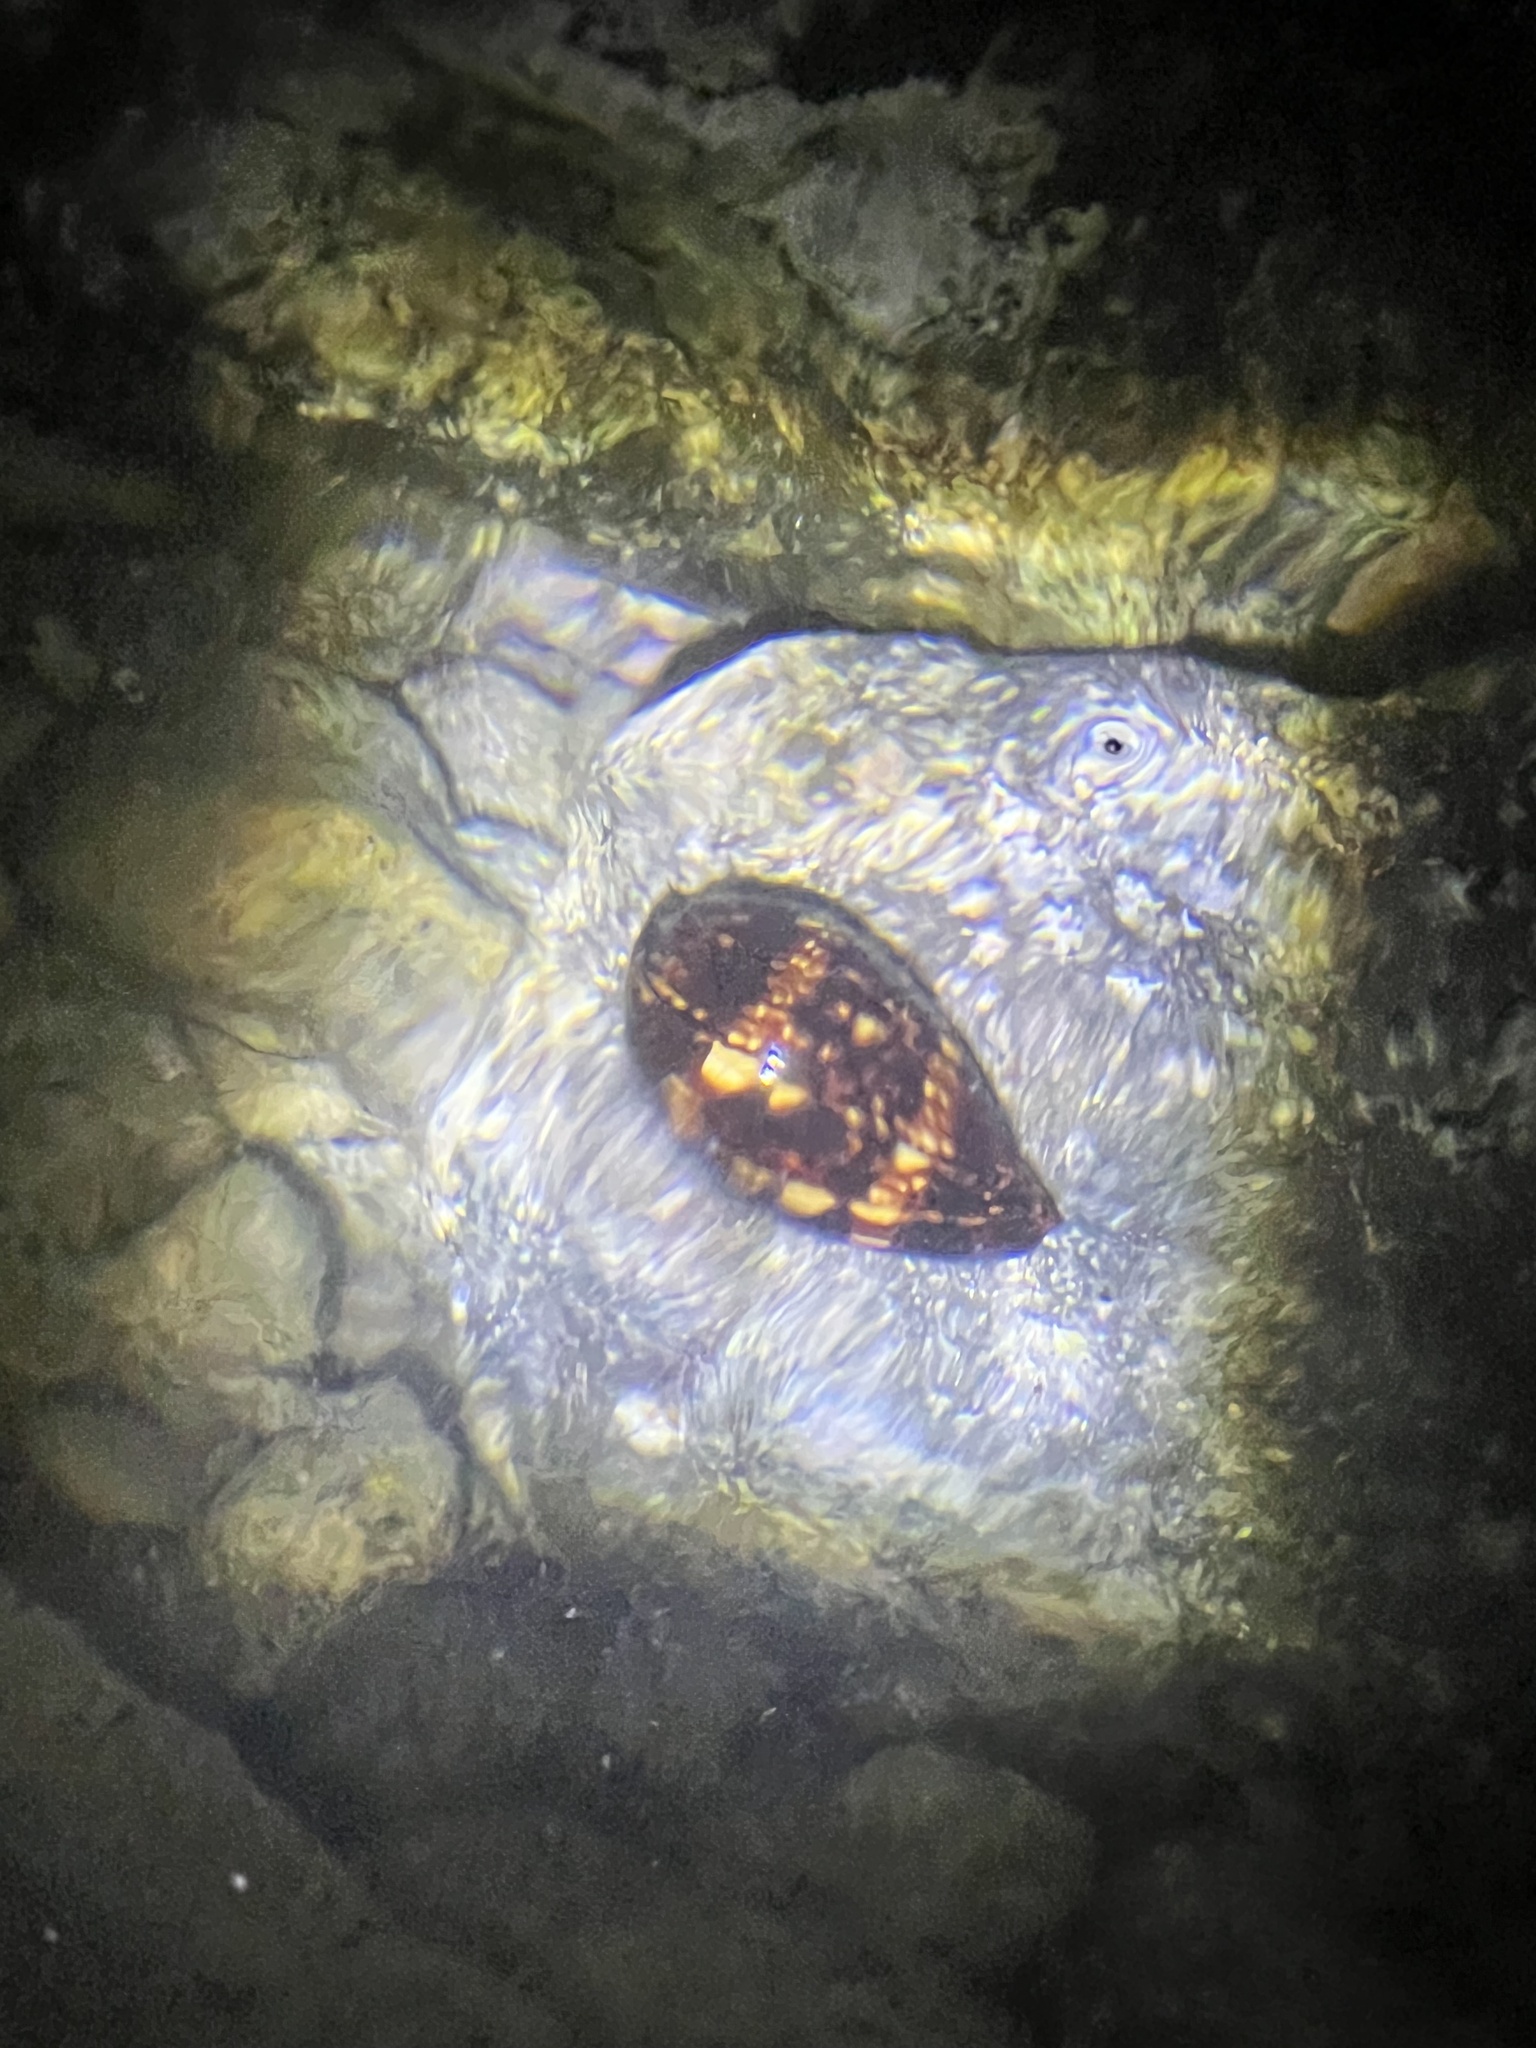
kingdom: Animalia
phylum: Mollusca
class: Gastropoda
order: Littorinimorpha
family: Cypraeidae
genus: Mauritia
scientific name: Mauritia mauritiana
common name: Hump-backed cowrie
